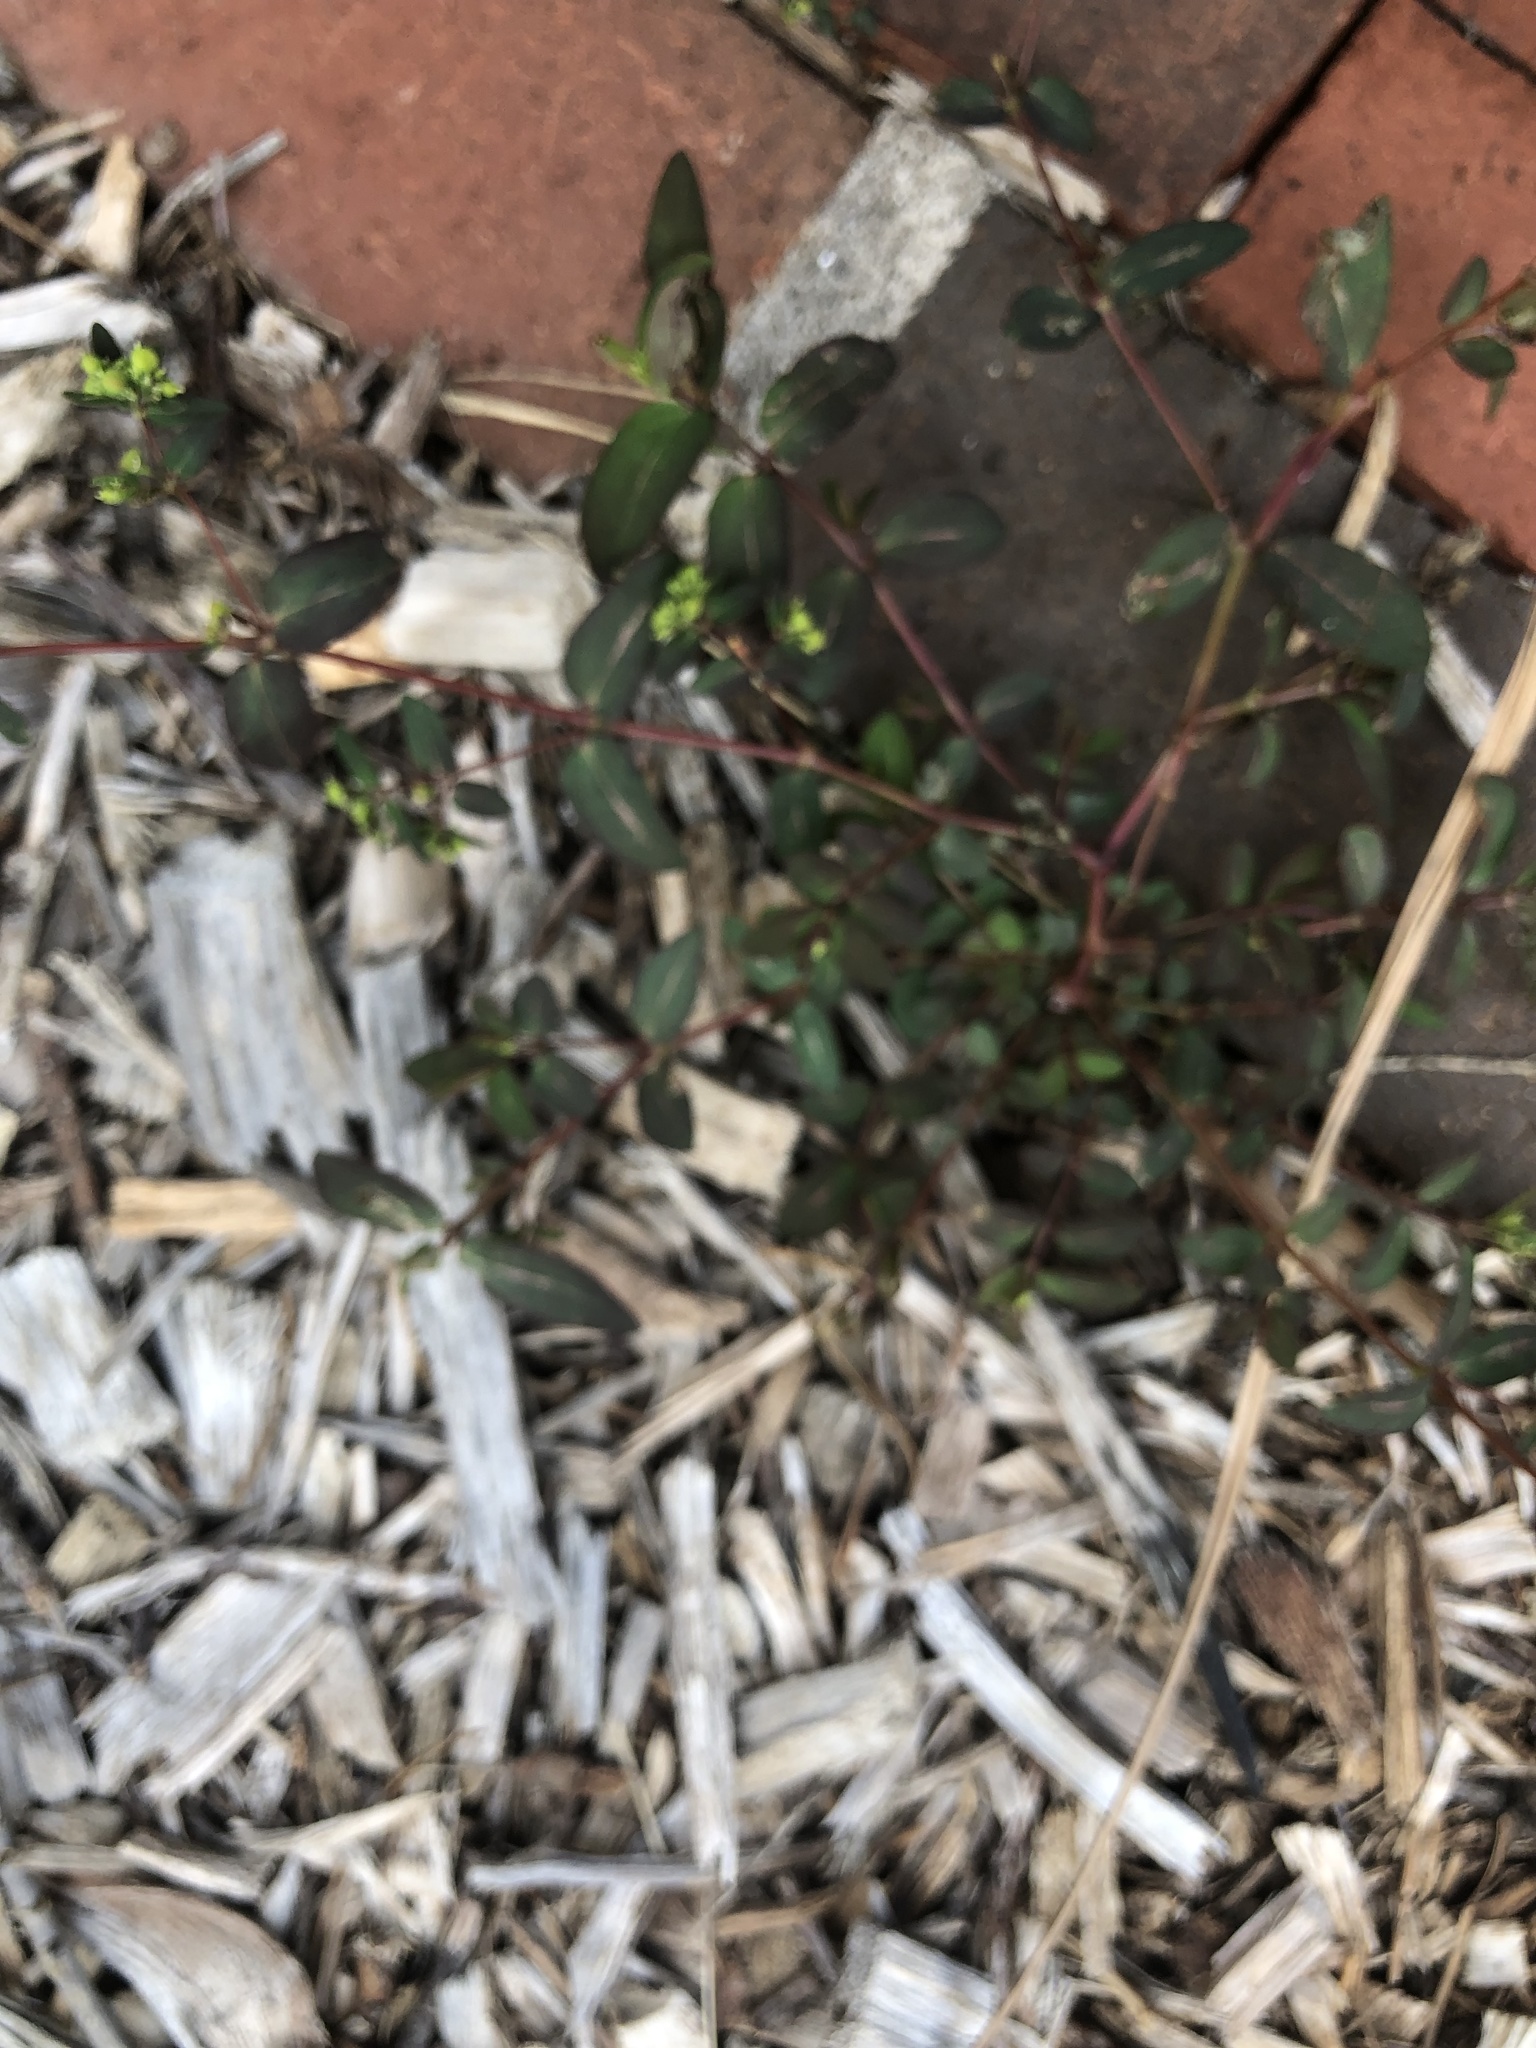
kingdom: Plantae
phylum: Tracheophyta
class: Magnoliopsida
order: Malpighiales
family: Euphorbiaceae
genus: Euphorbia
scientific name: Euphorbia hyssopifolia
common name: Hyssopleaf sandmat
